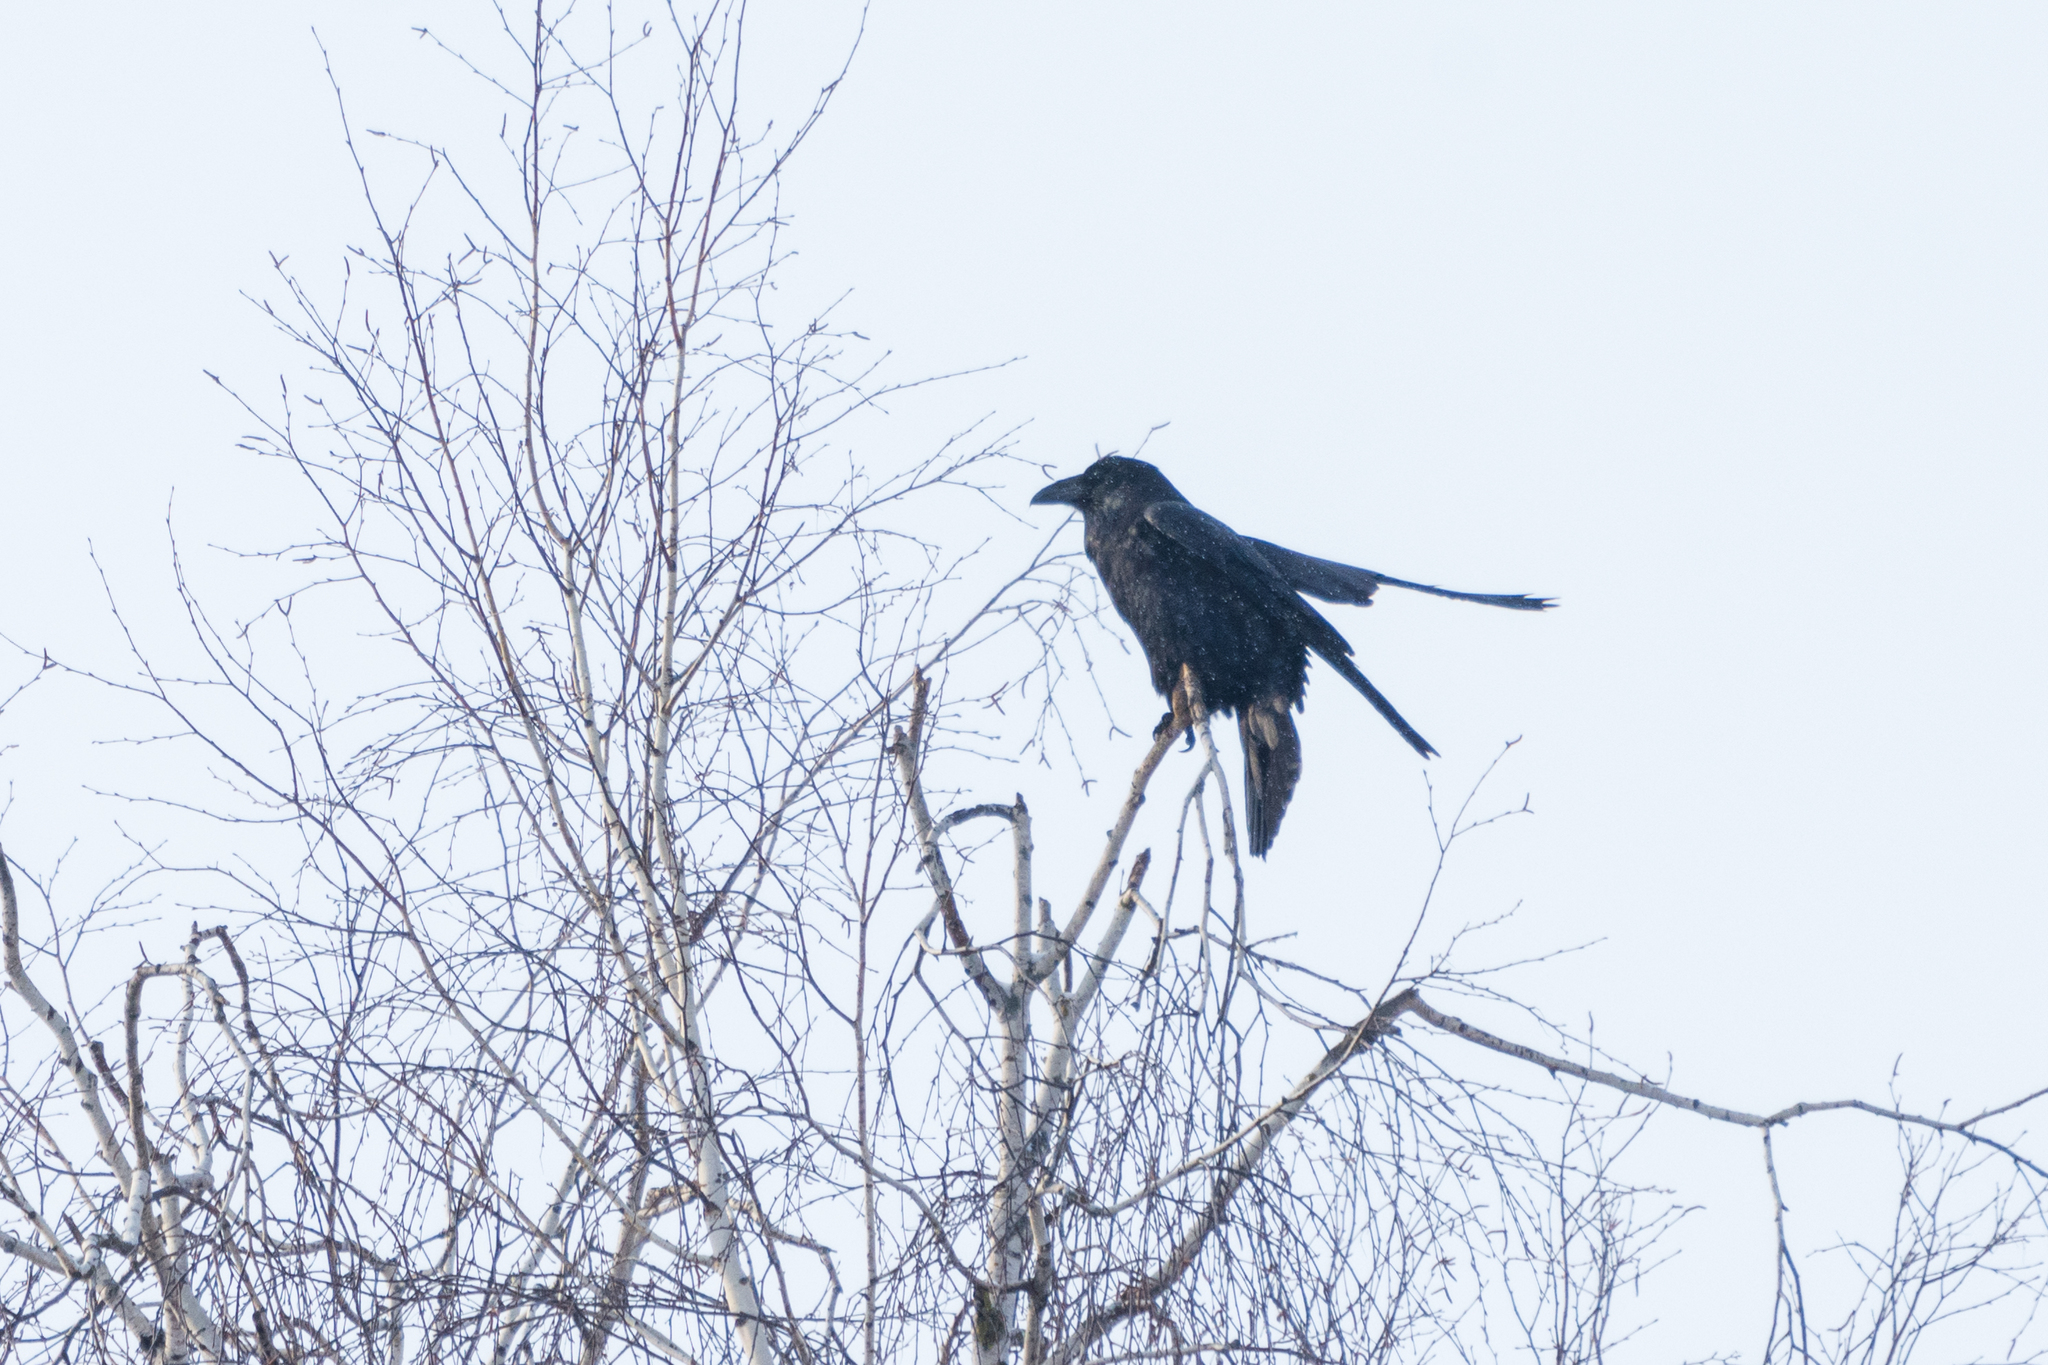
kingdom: Animalia
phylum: Chordata
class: Aves
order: Passeriformes
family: Corvidae
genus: Corvus
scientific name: Corvus corax
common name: Common raven
